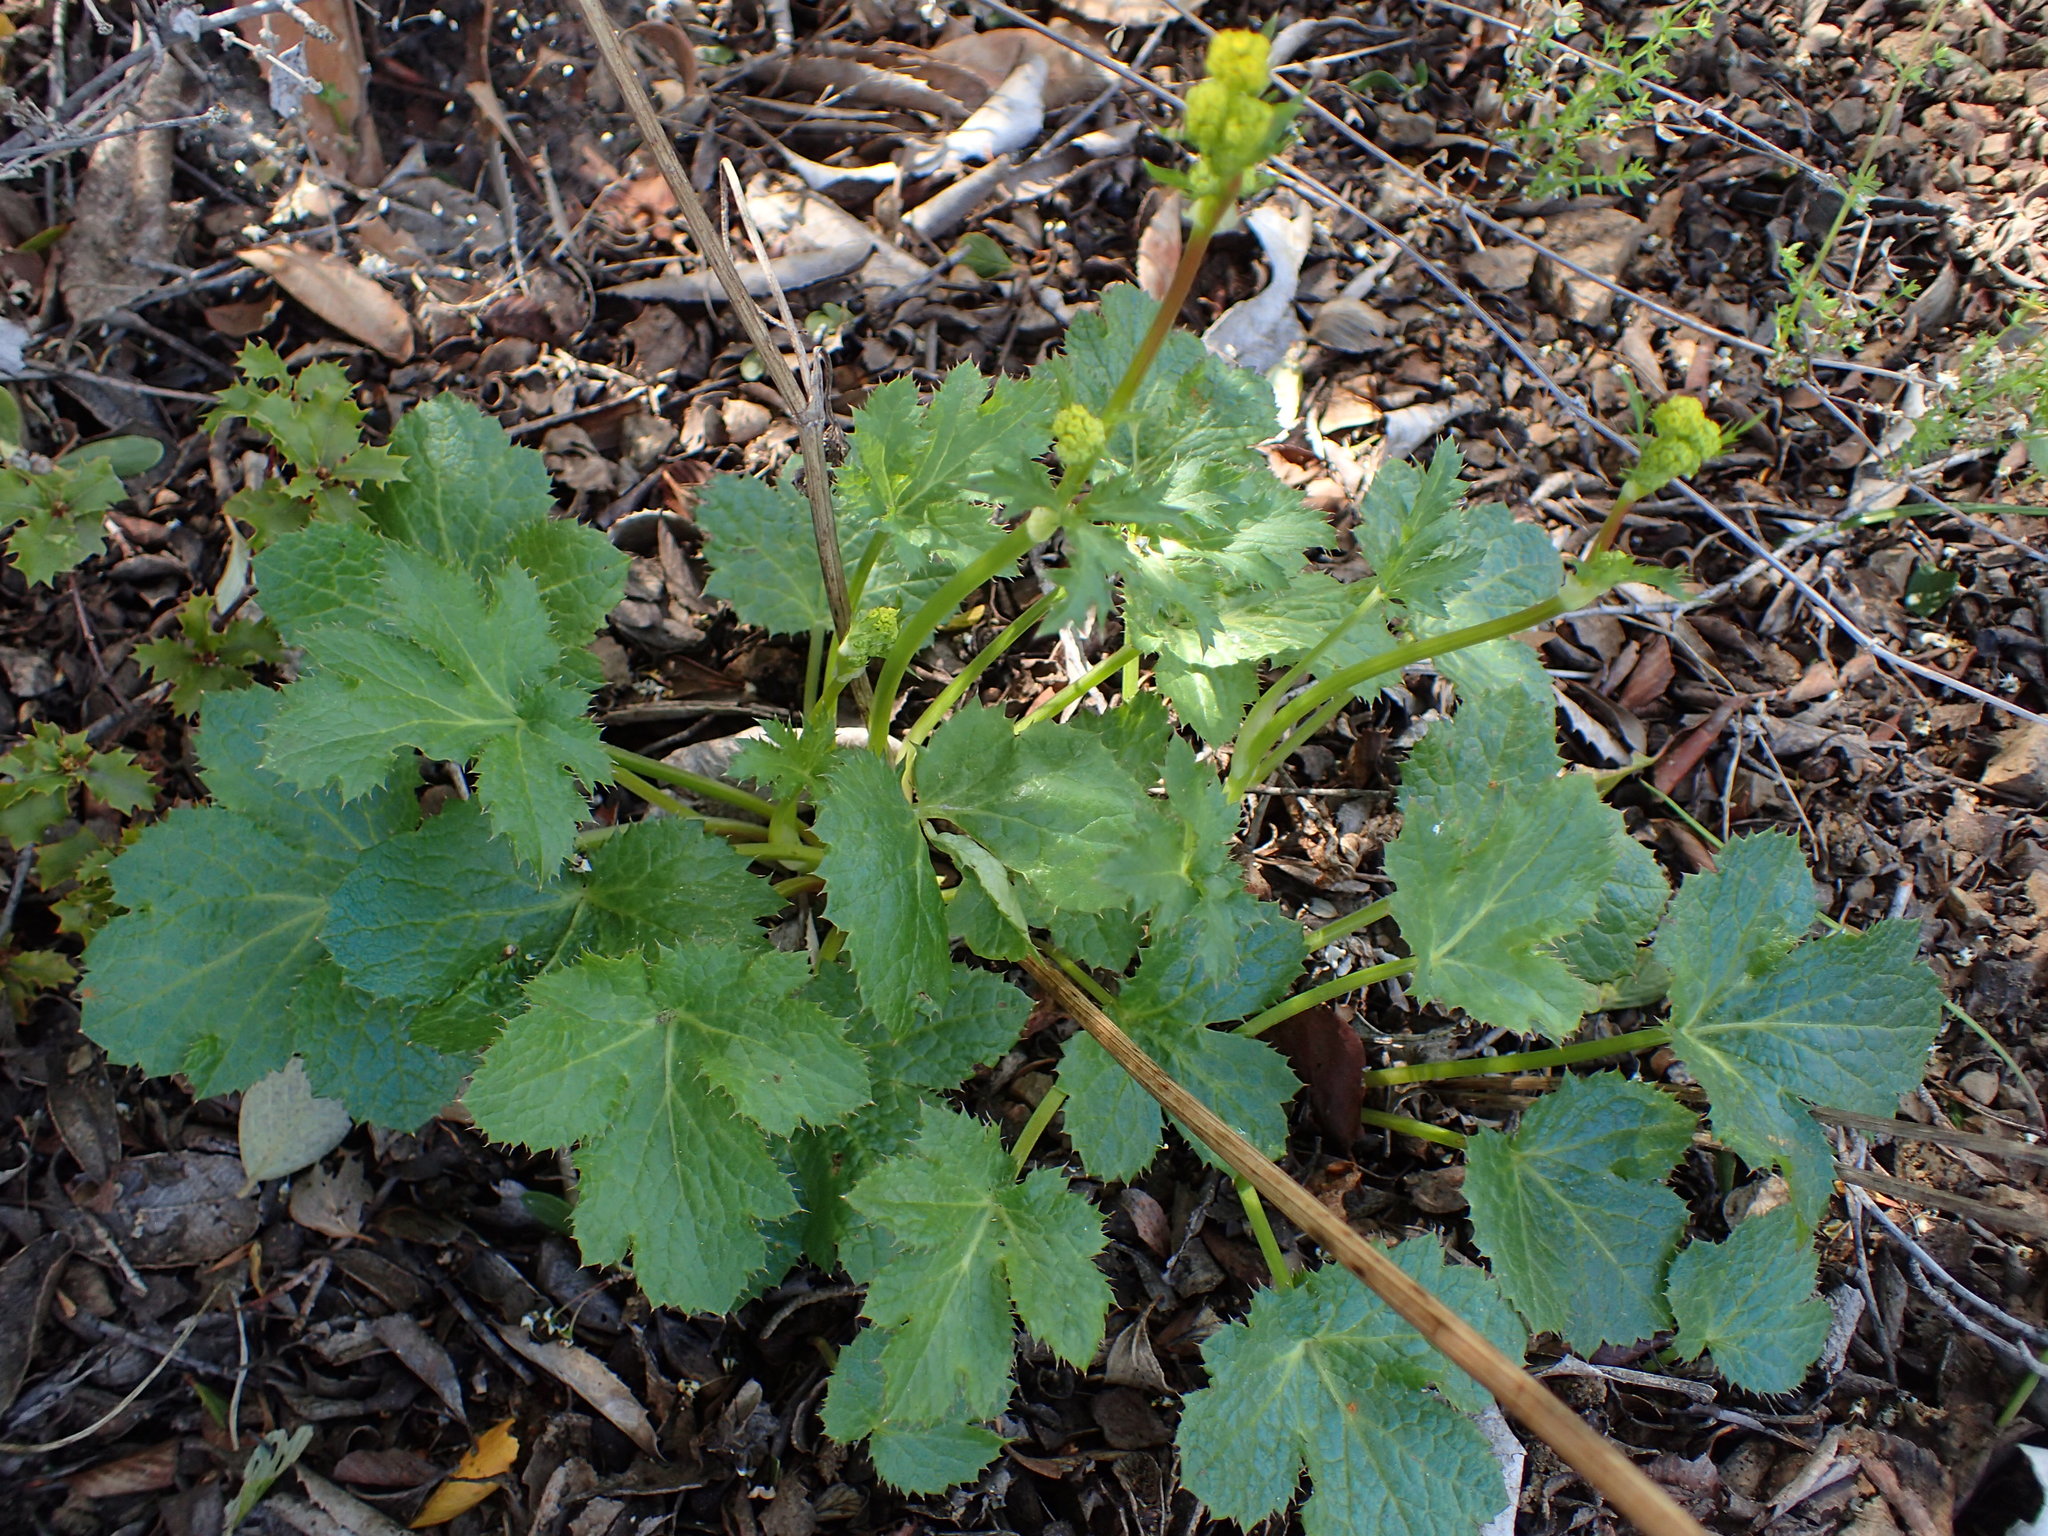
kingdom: Plantae
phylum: Tracheophyta
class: Magnoliopsida
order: Apiales
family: Apiaceae
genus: Sanicula
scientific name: Sanicula crassicaulis
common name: Western snakeroot
